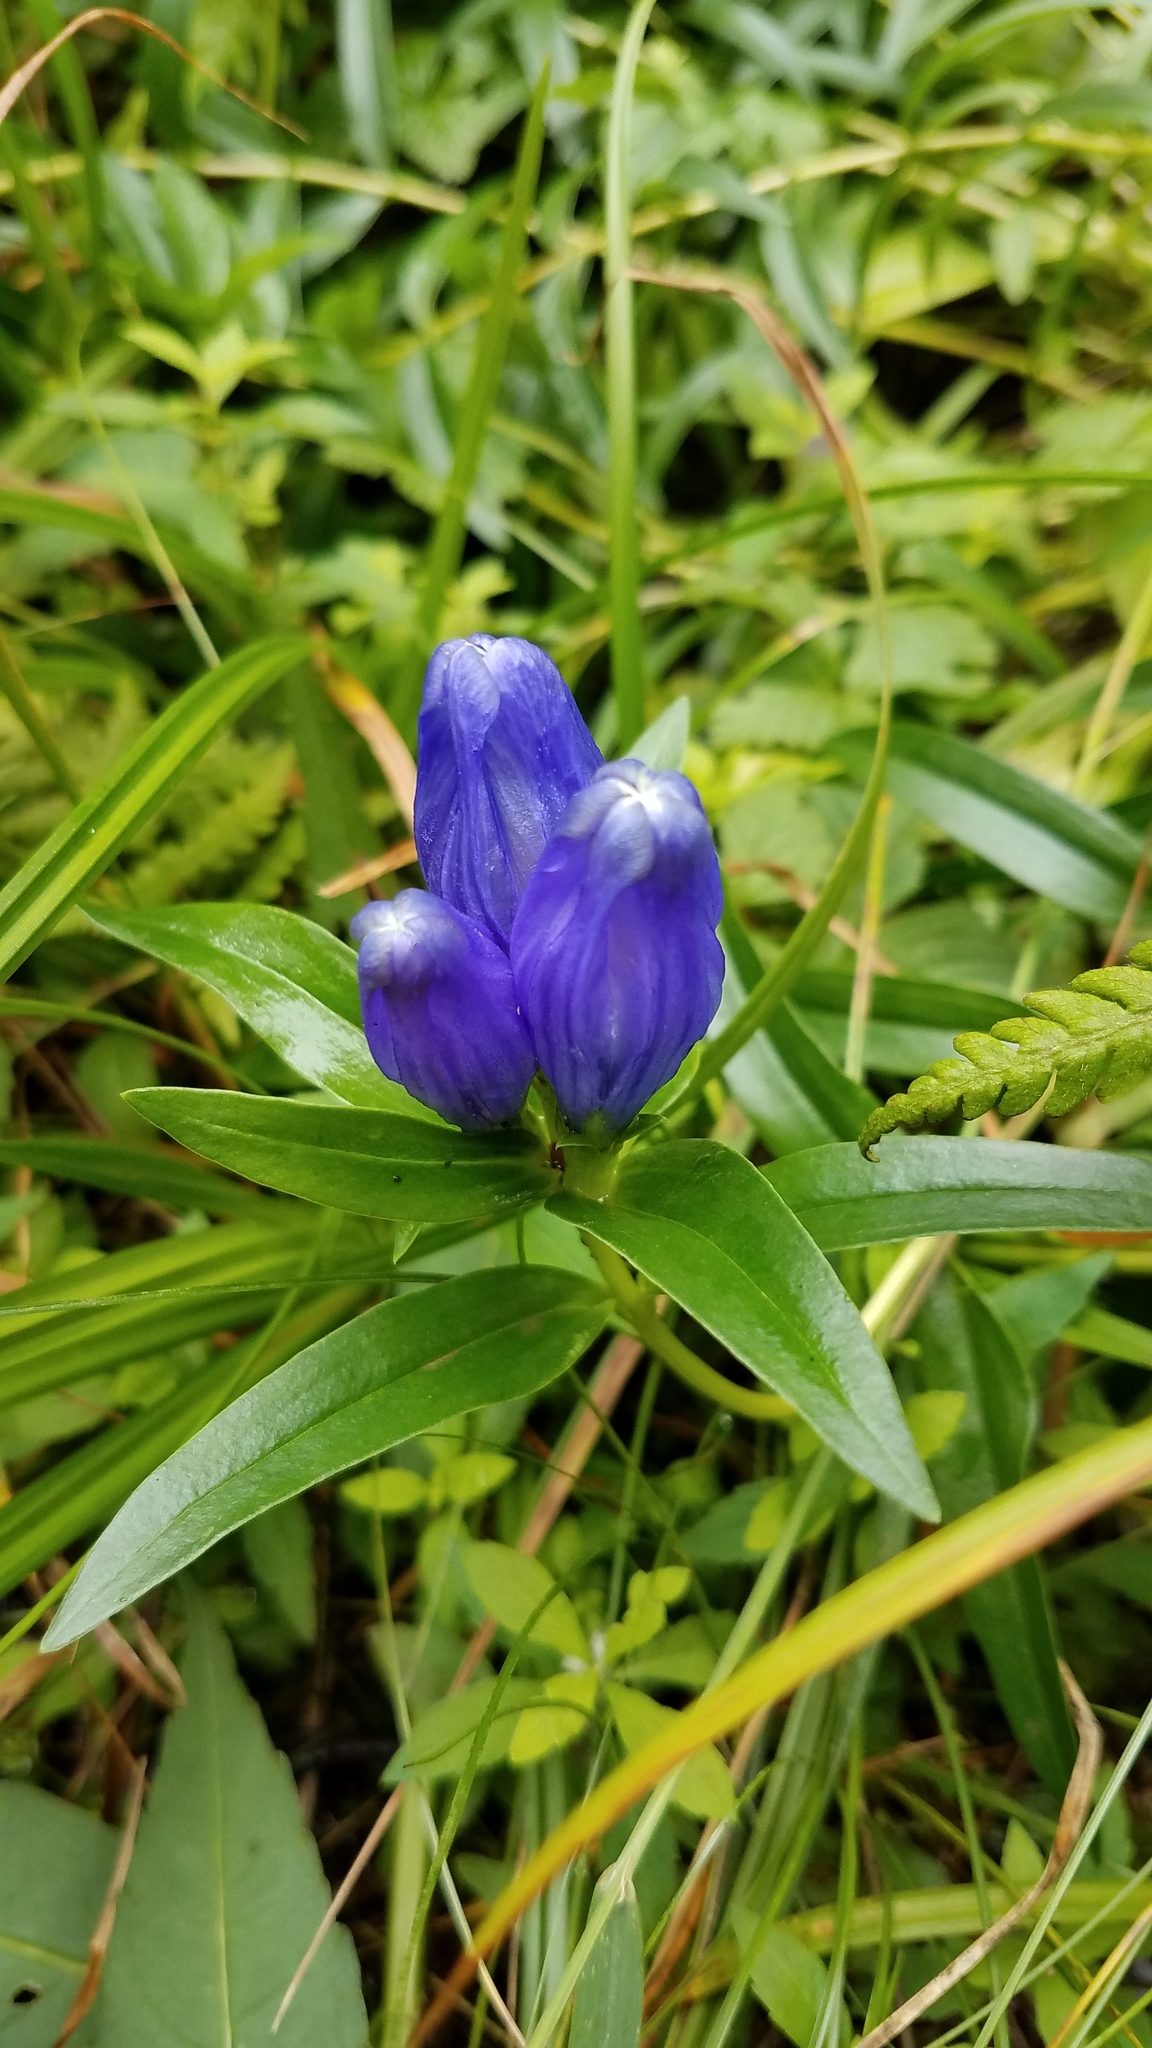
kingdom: Plantae
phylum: Tracheophyta
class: Magnoliopsida
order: Gentianales
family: Gentianaceae
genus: Gentiana
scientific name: Gentiana linearis
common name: Bastard gentian
